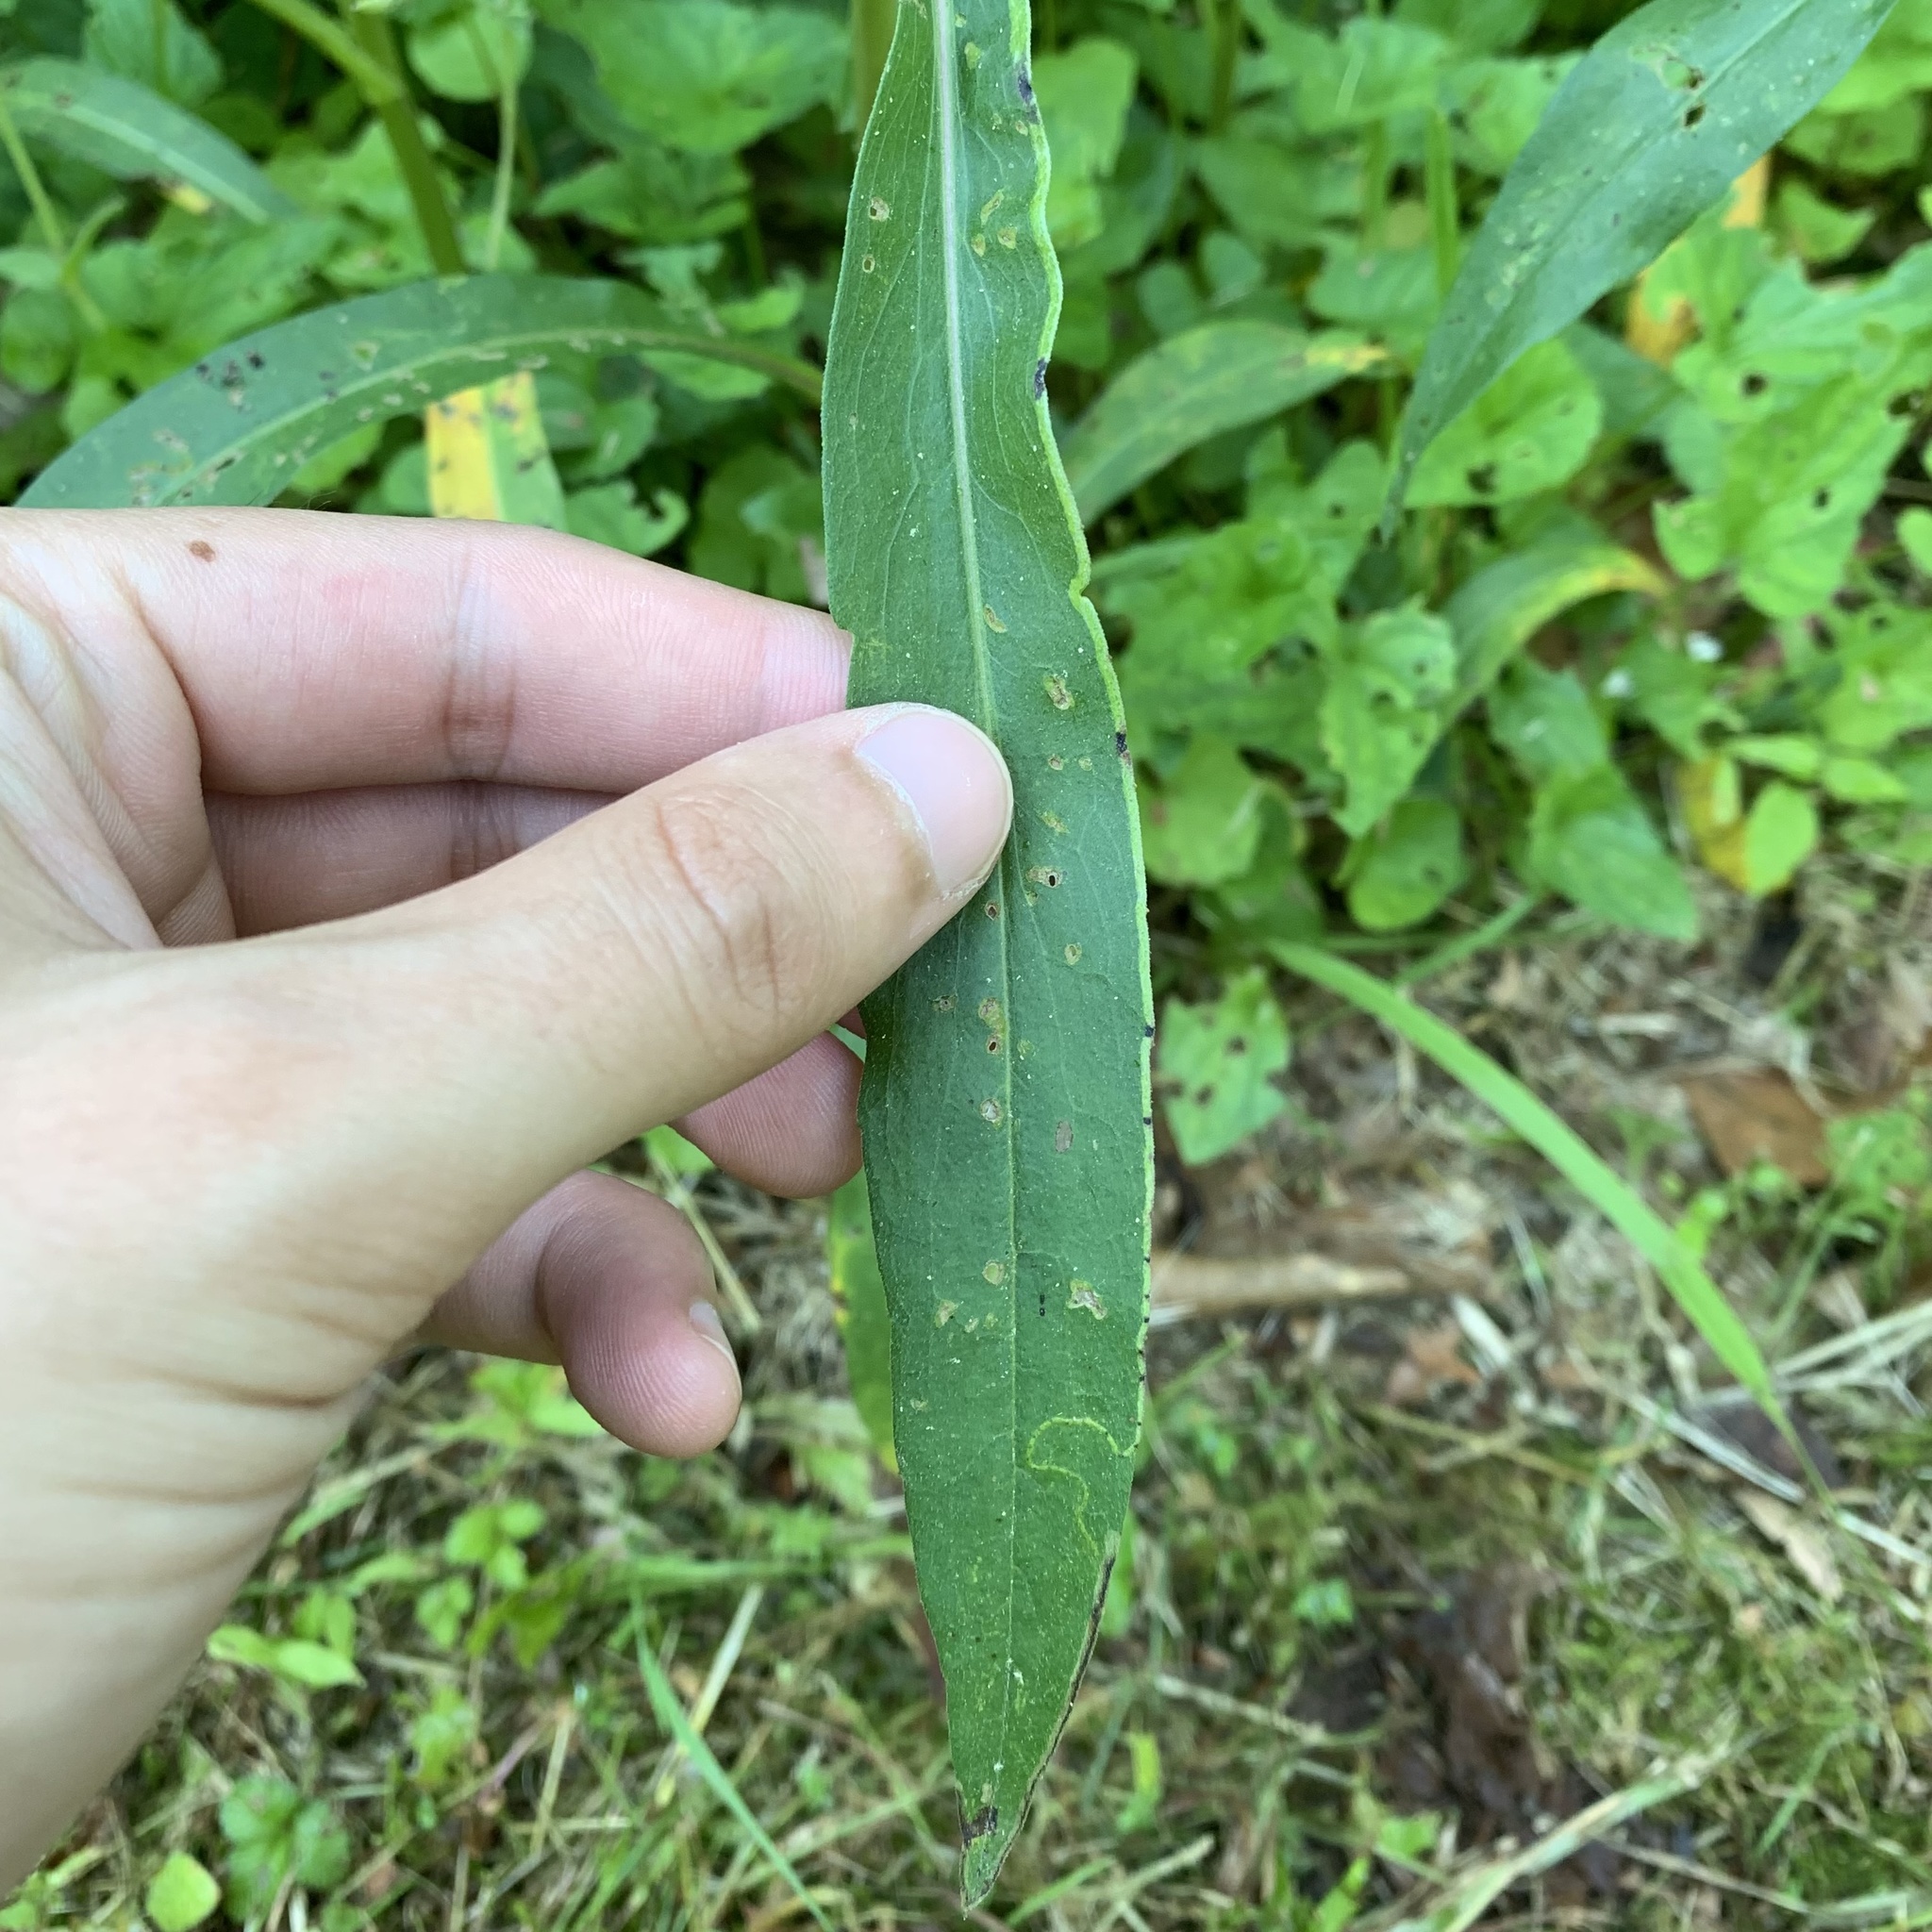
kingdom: Animalia
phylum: Arthropoda
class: Insecta
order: Diptera
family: Agromyzidae
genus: Ophiomyia
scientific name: Ophiomyia parda
